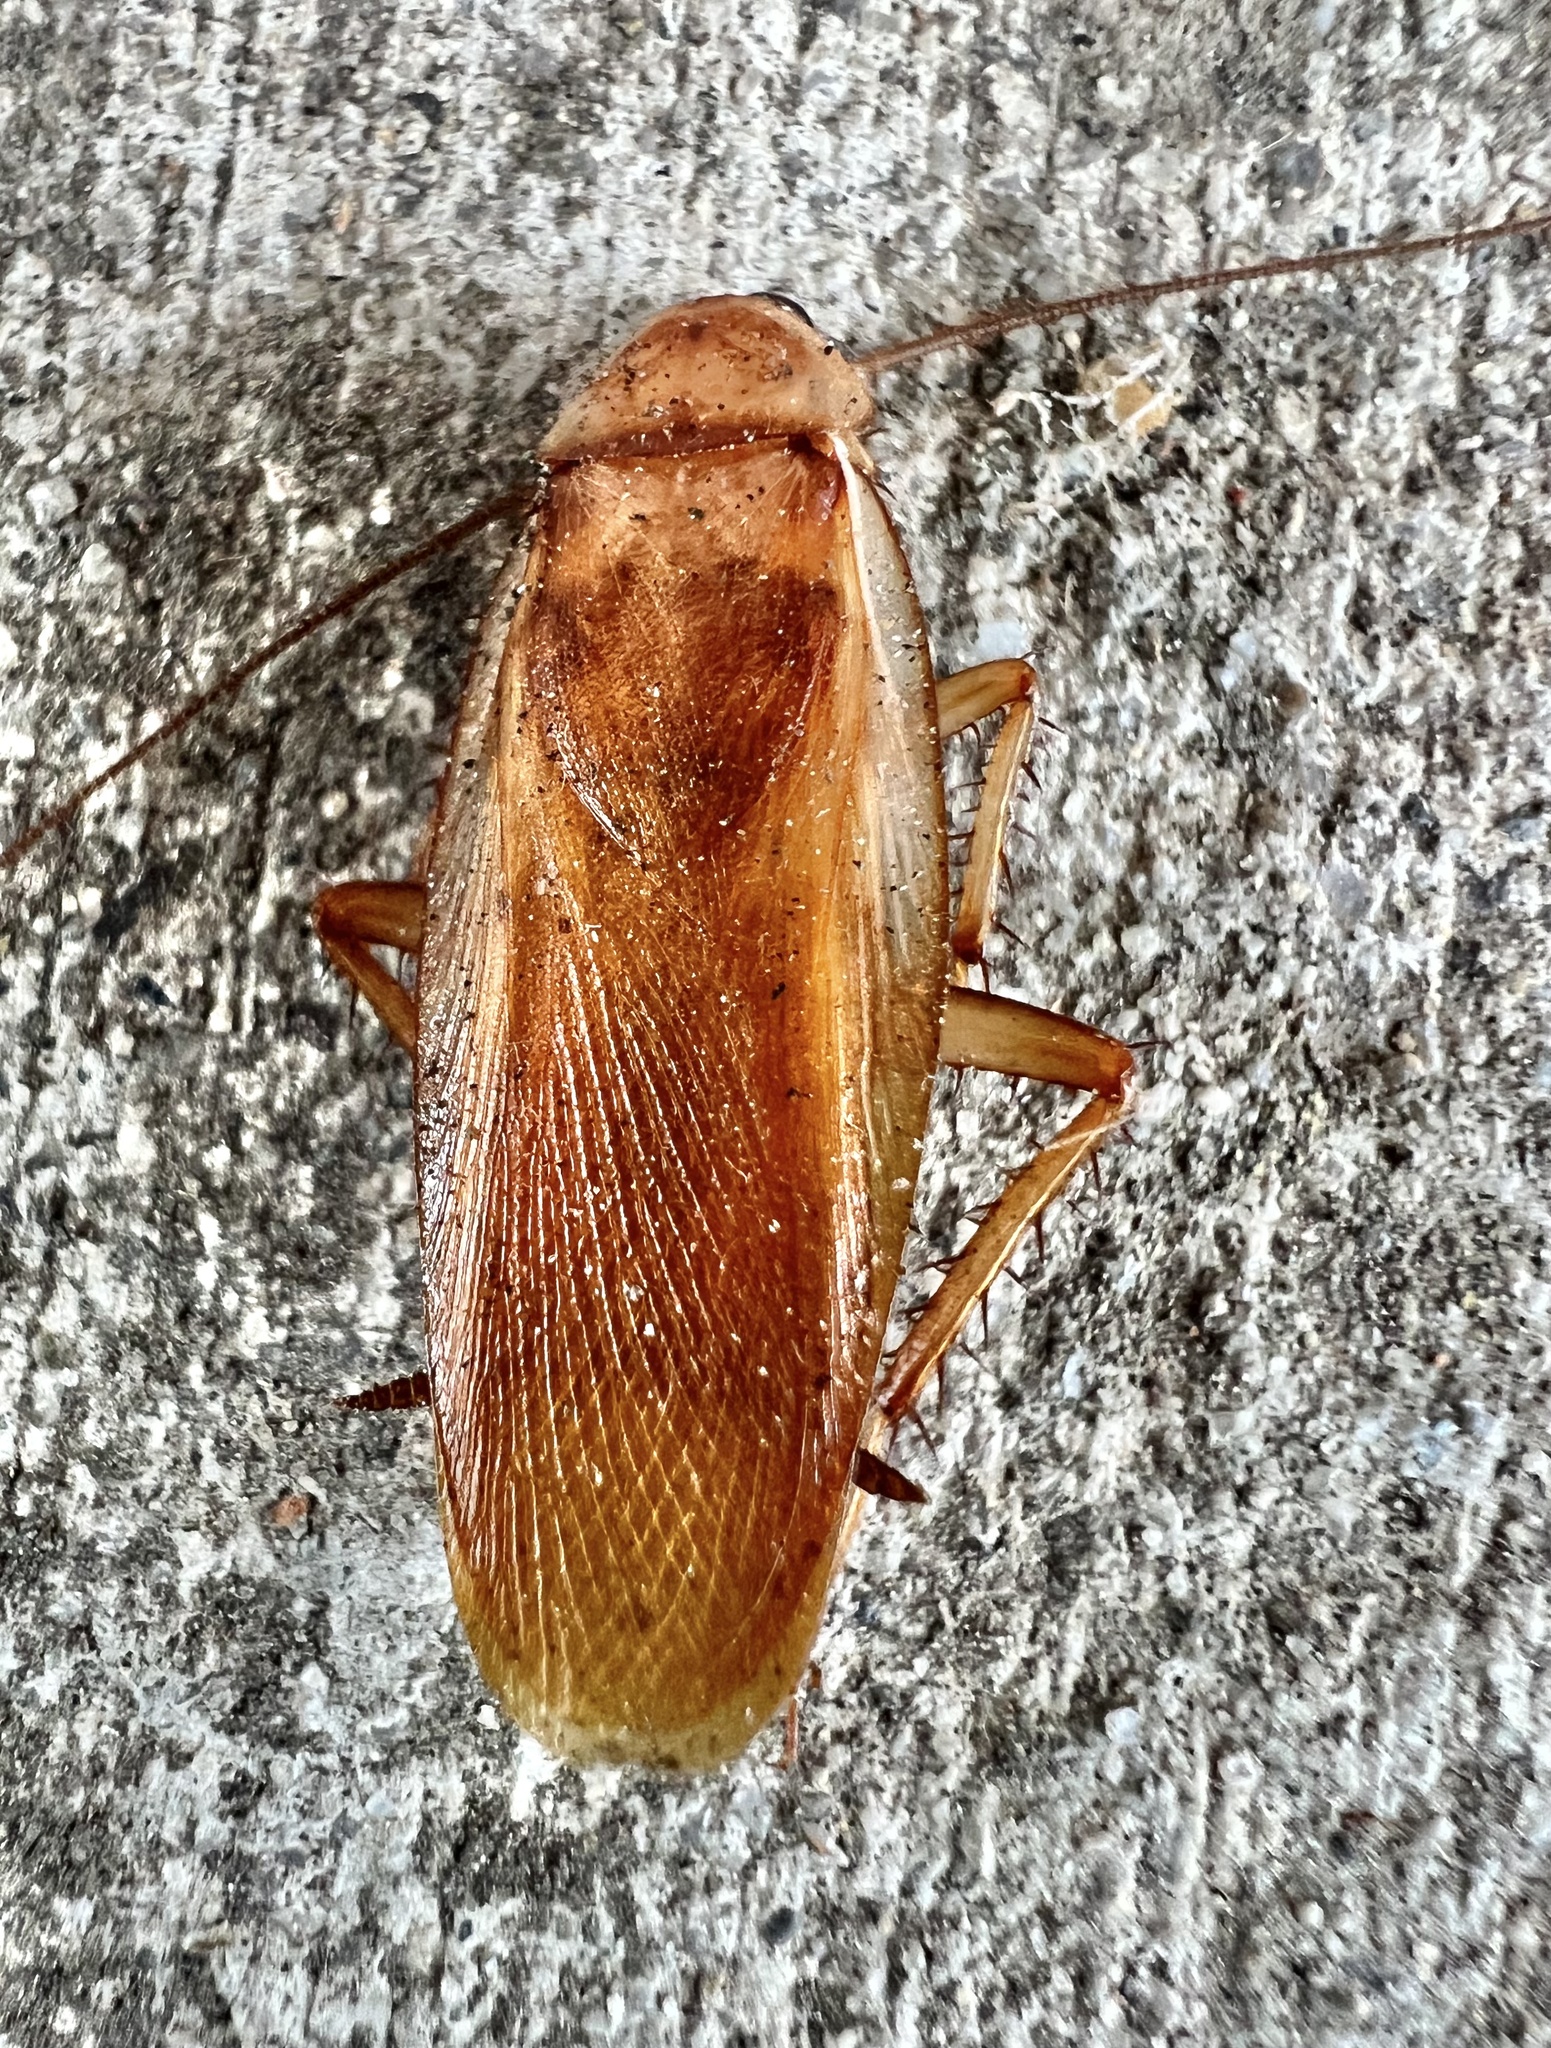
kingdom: Animalia
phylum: Arthropoda
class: Insecta
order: Blattodea
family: Blattidae
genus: Periplaneta
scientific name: Periplaneta lateralis
